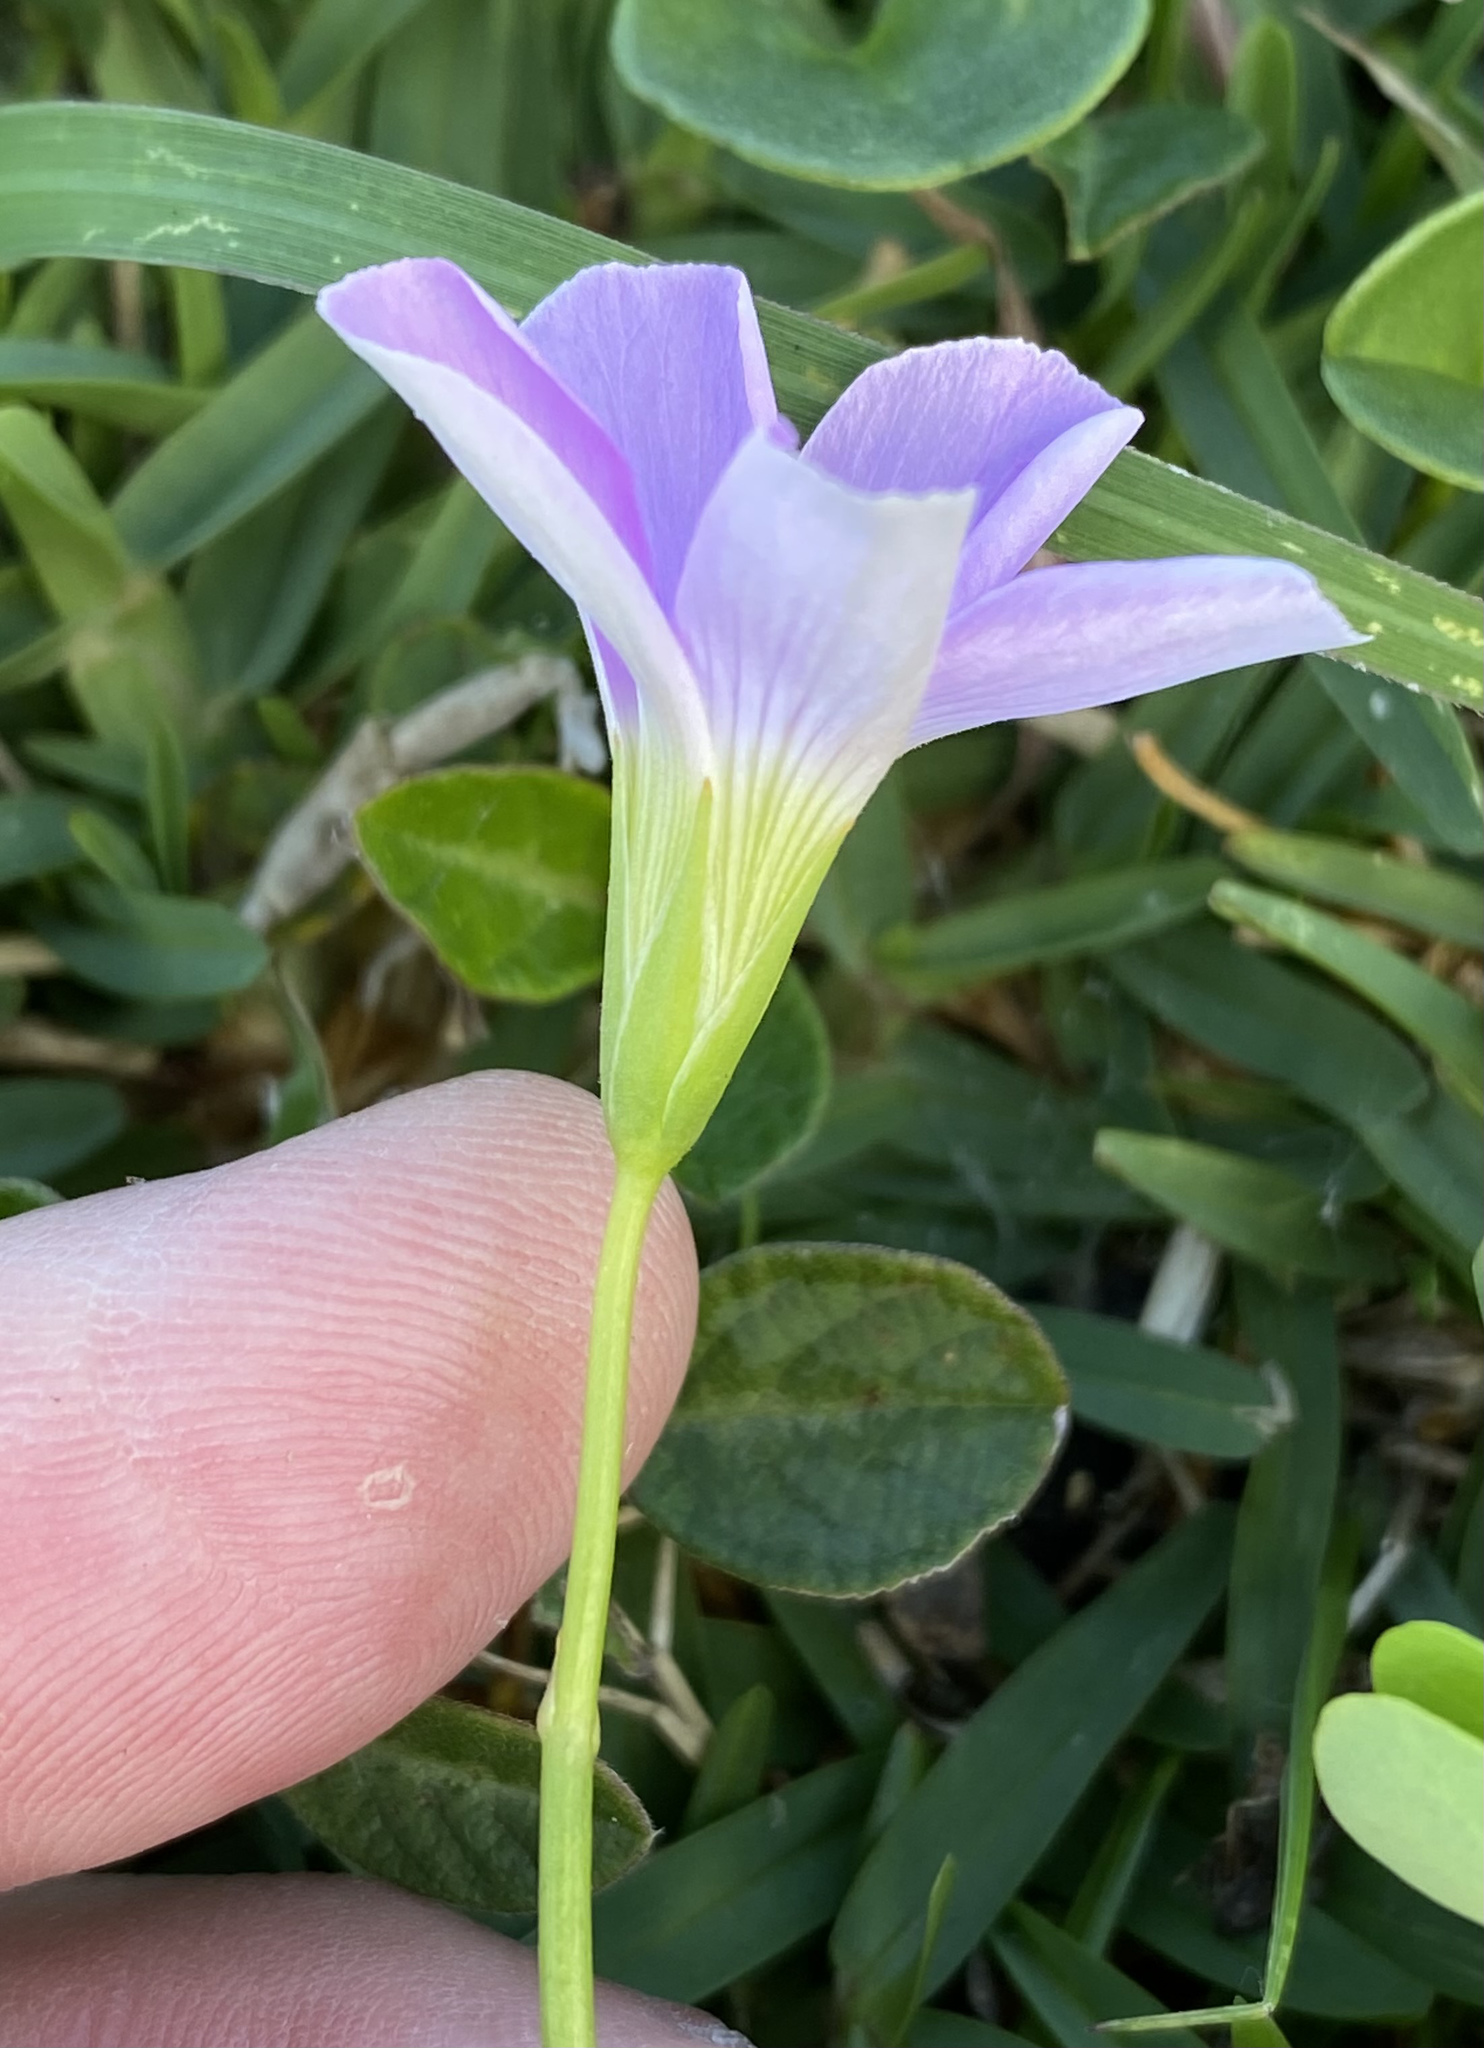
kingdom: Plantae
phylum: Tracheophyta
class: Magnoliopsida
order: Oxalidales
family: Oxalidaceae
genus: Oxalis
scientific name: Oxalis smithiana
